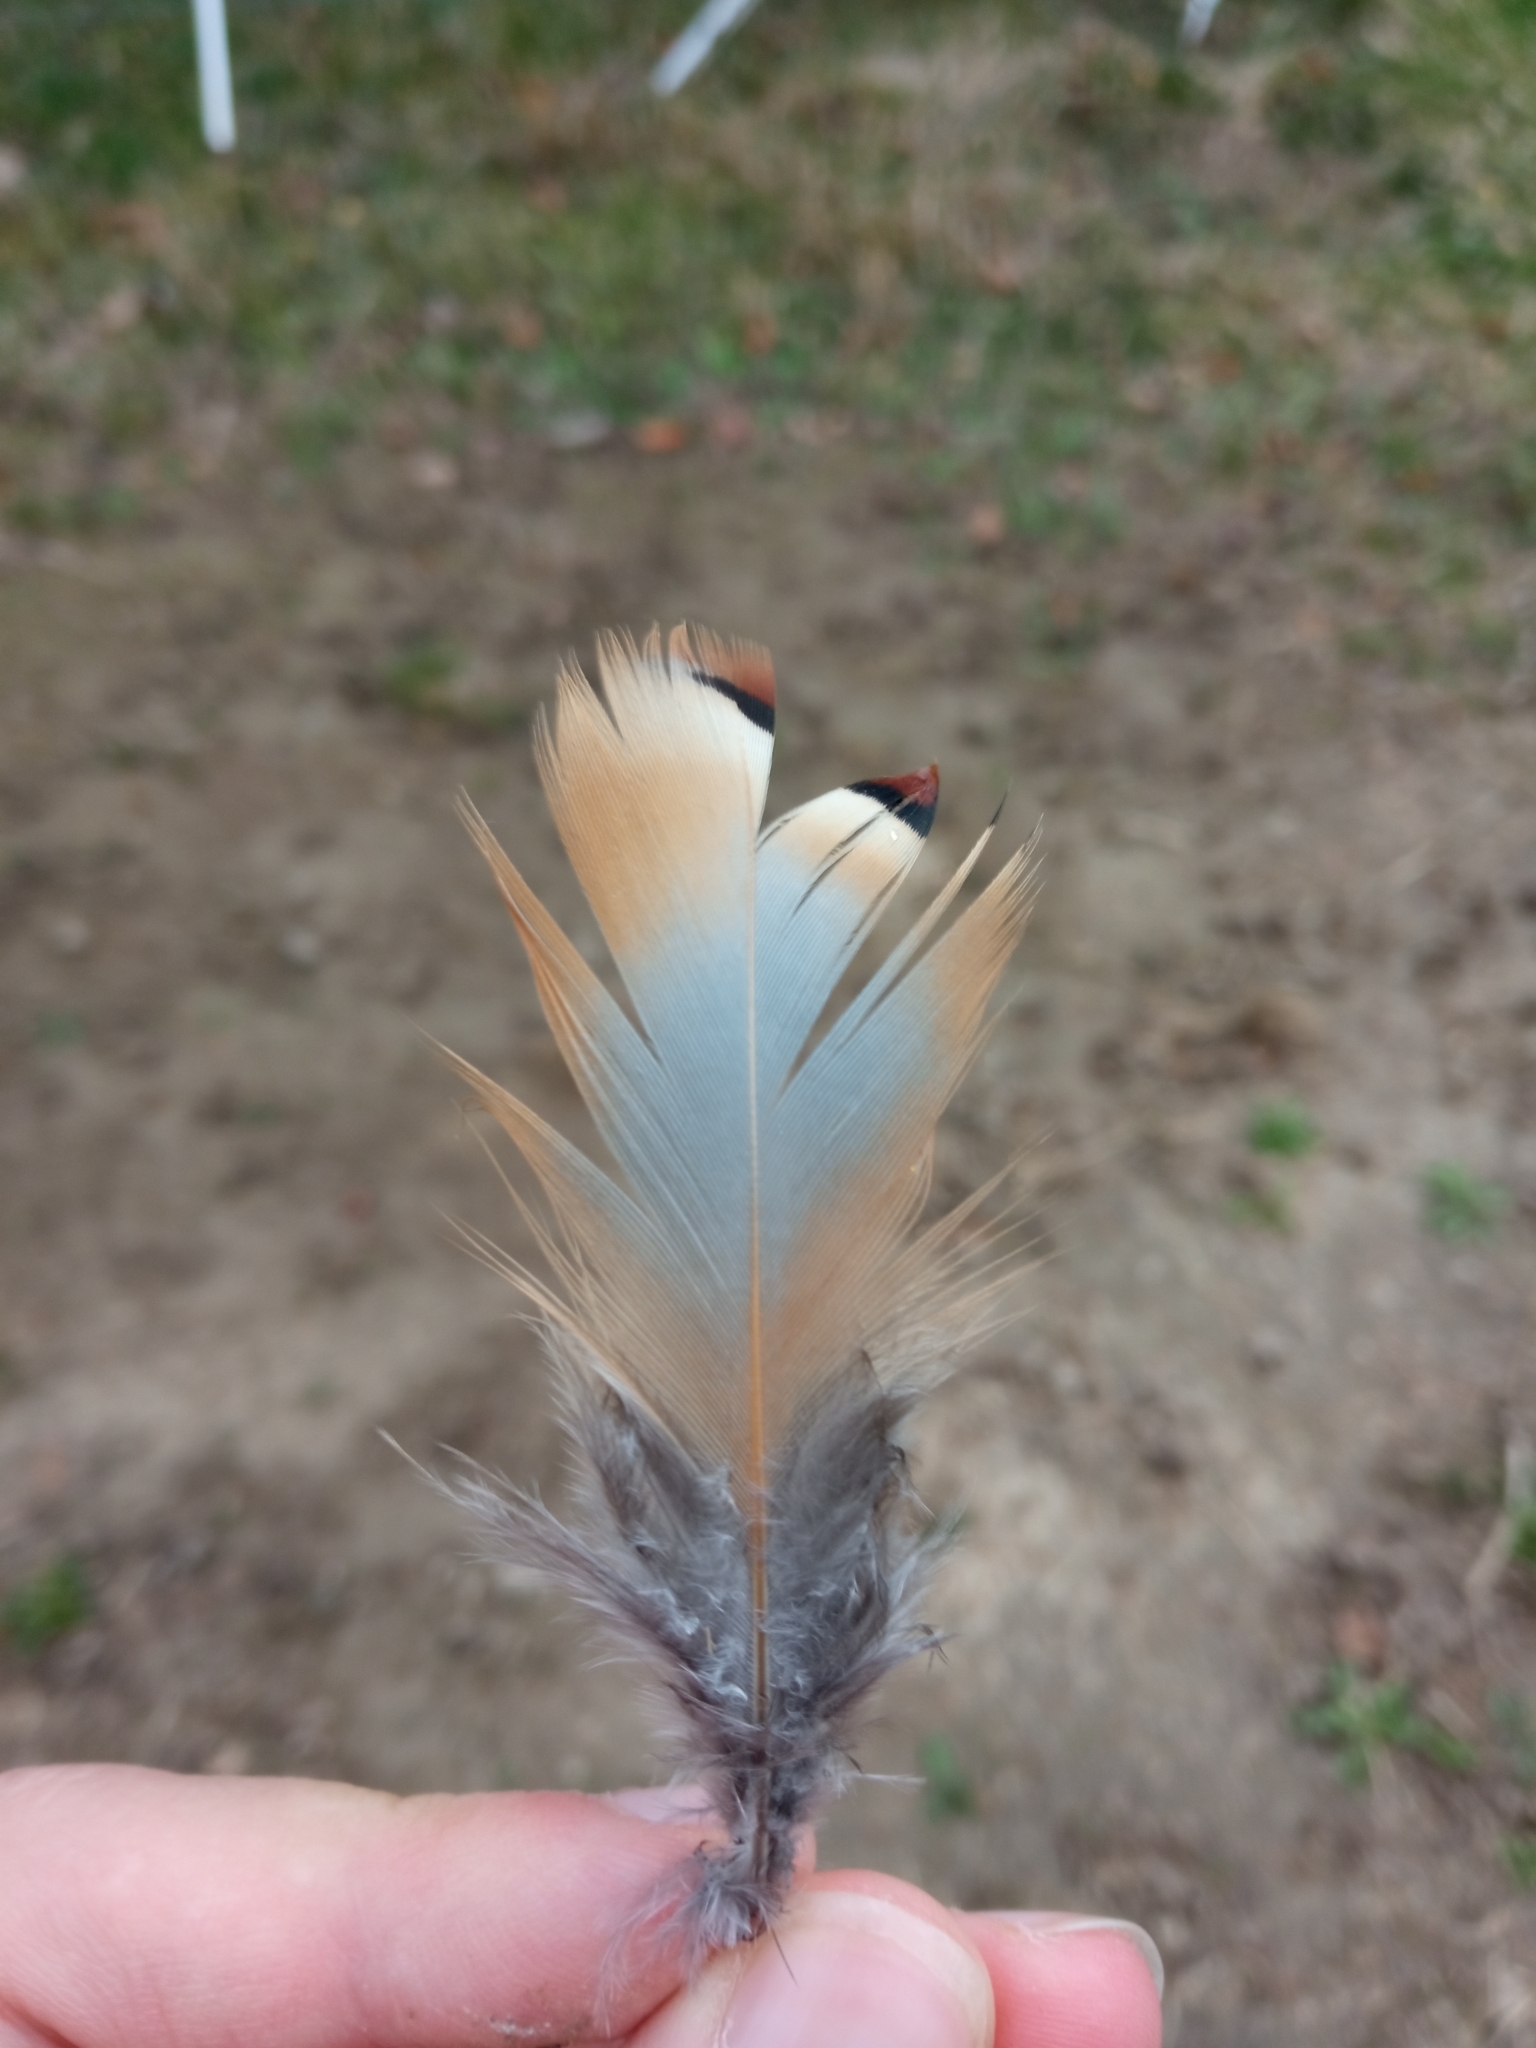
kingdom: Animalia
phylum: Chordata
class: Aves
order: Galliformes
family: Phasianidae
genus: Alectoris
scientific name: Alectoris rufa
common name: Red-legged partridge
